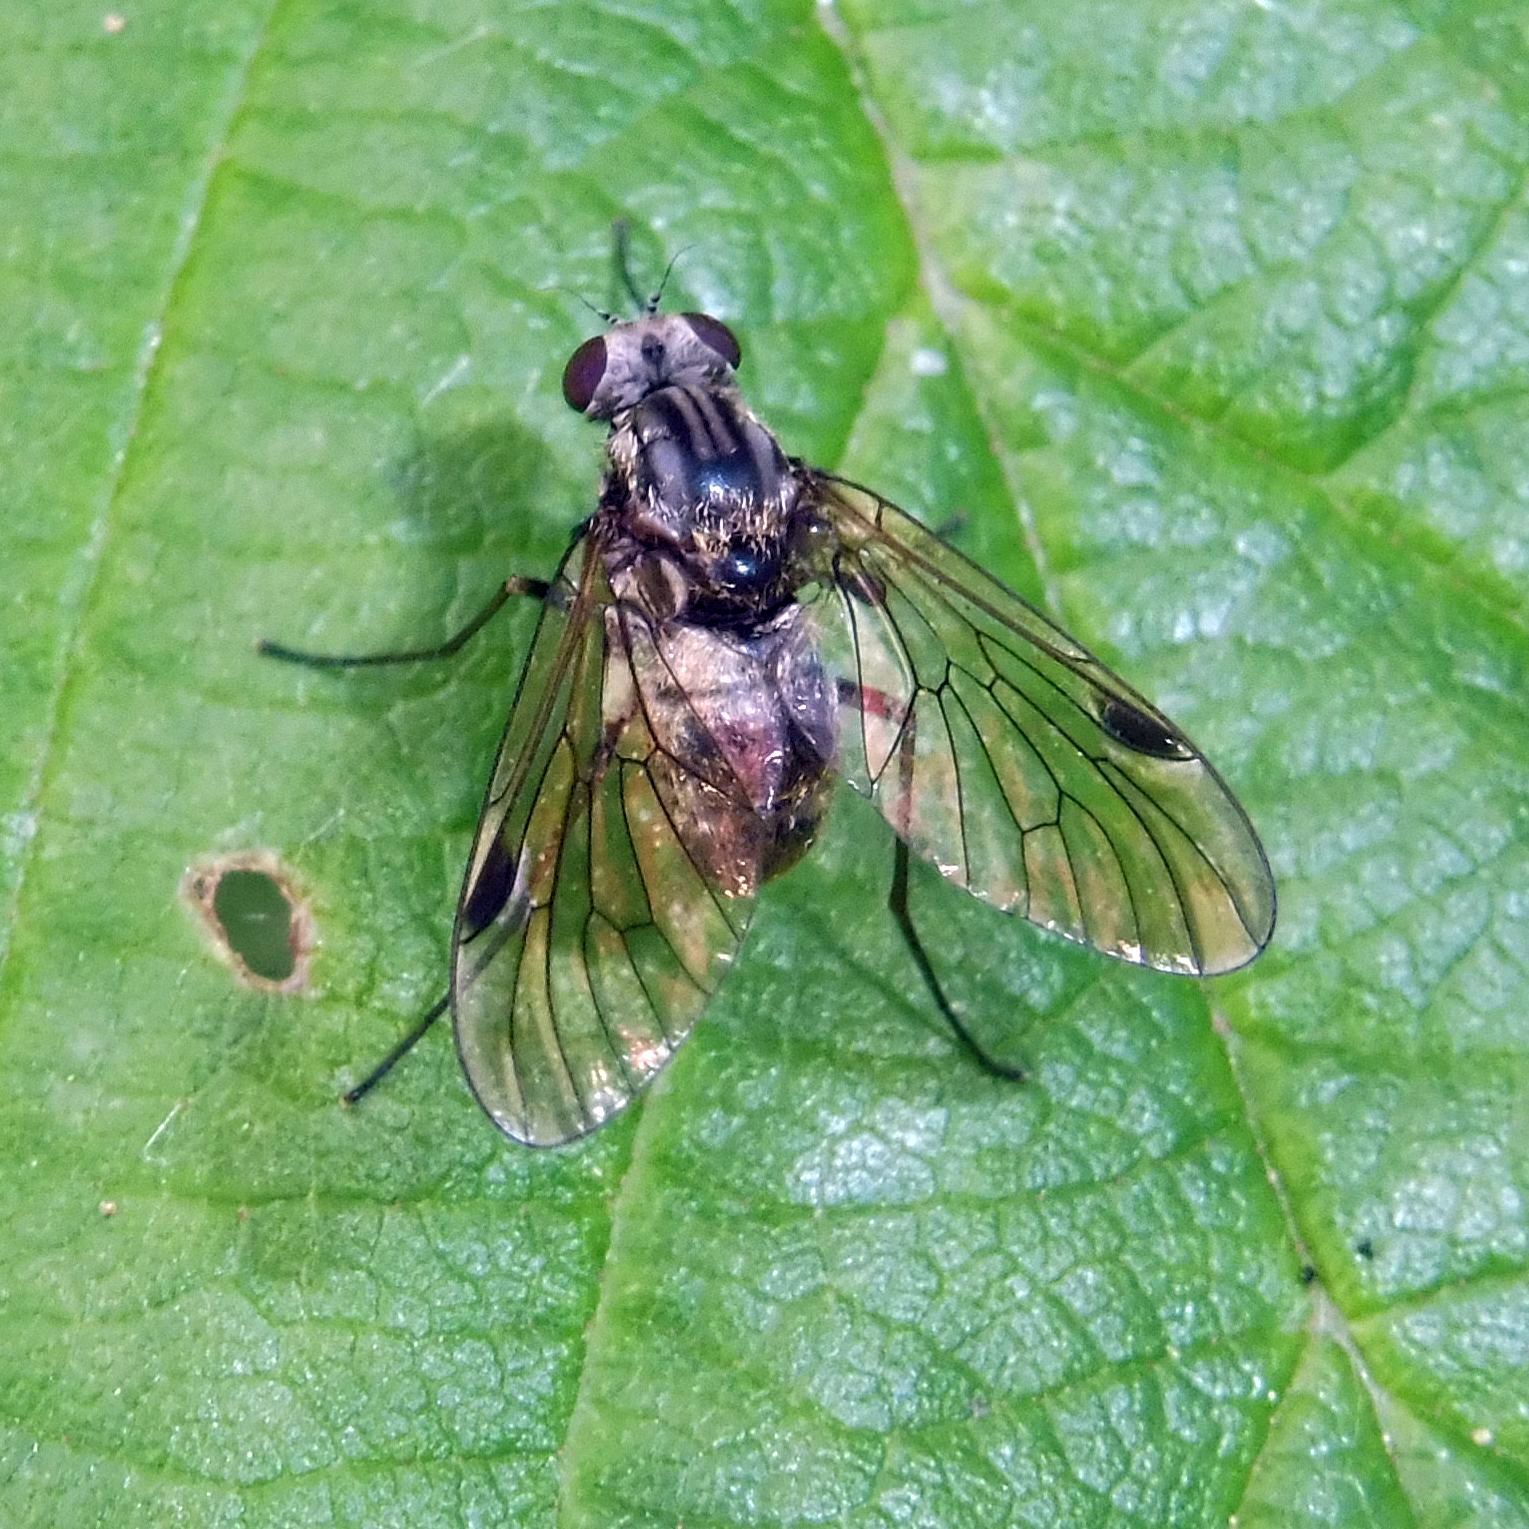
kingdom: Animalia
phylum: Arthropoda
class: Insecta
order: Diptera
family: Rhagionidae
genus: Chrysopilus
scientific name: Chrysopilus cristatus
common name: Black snipefly
